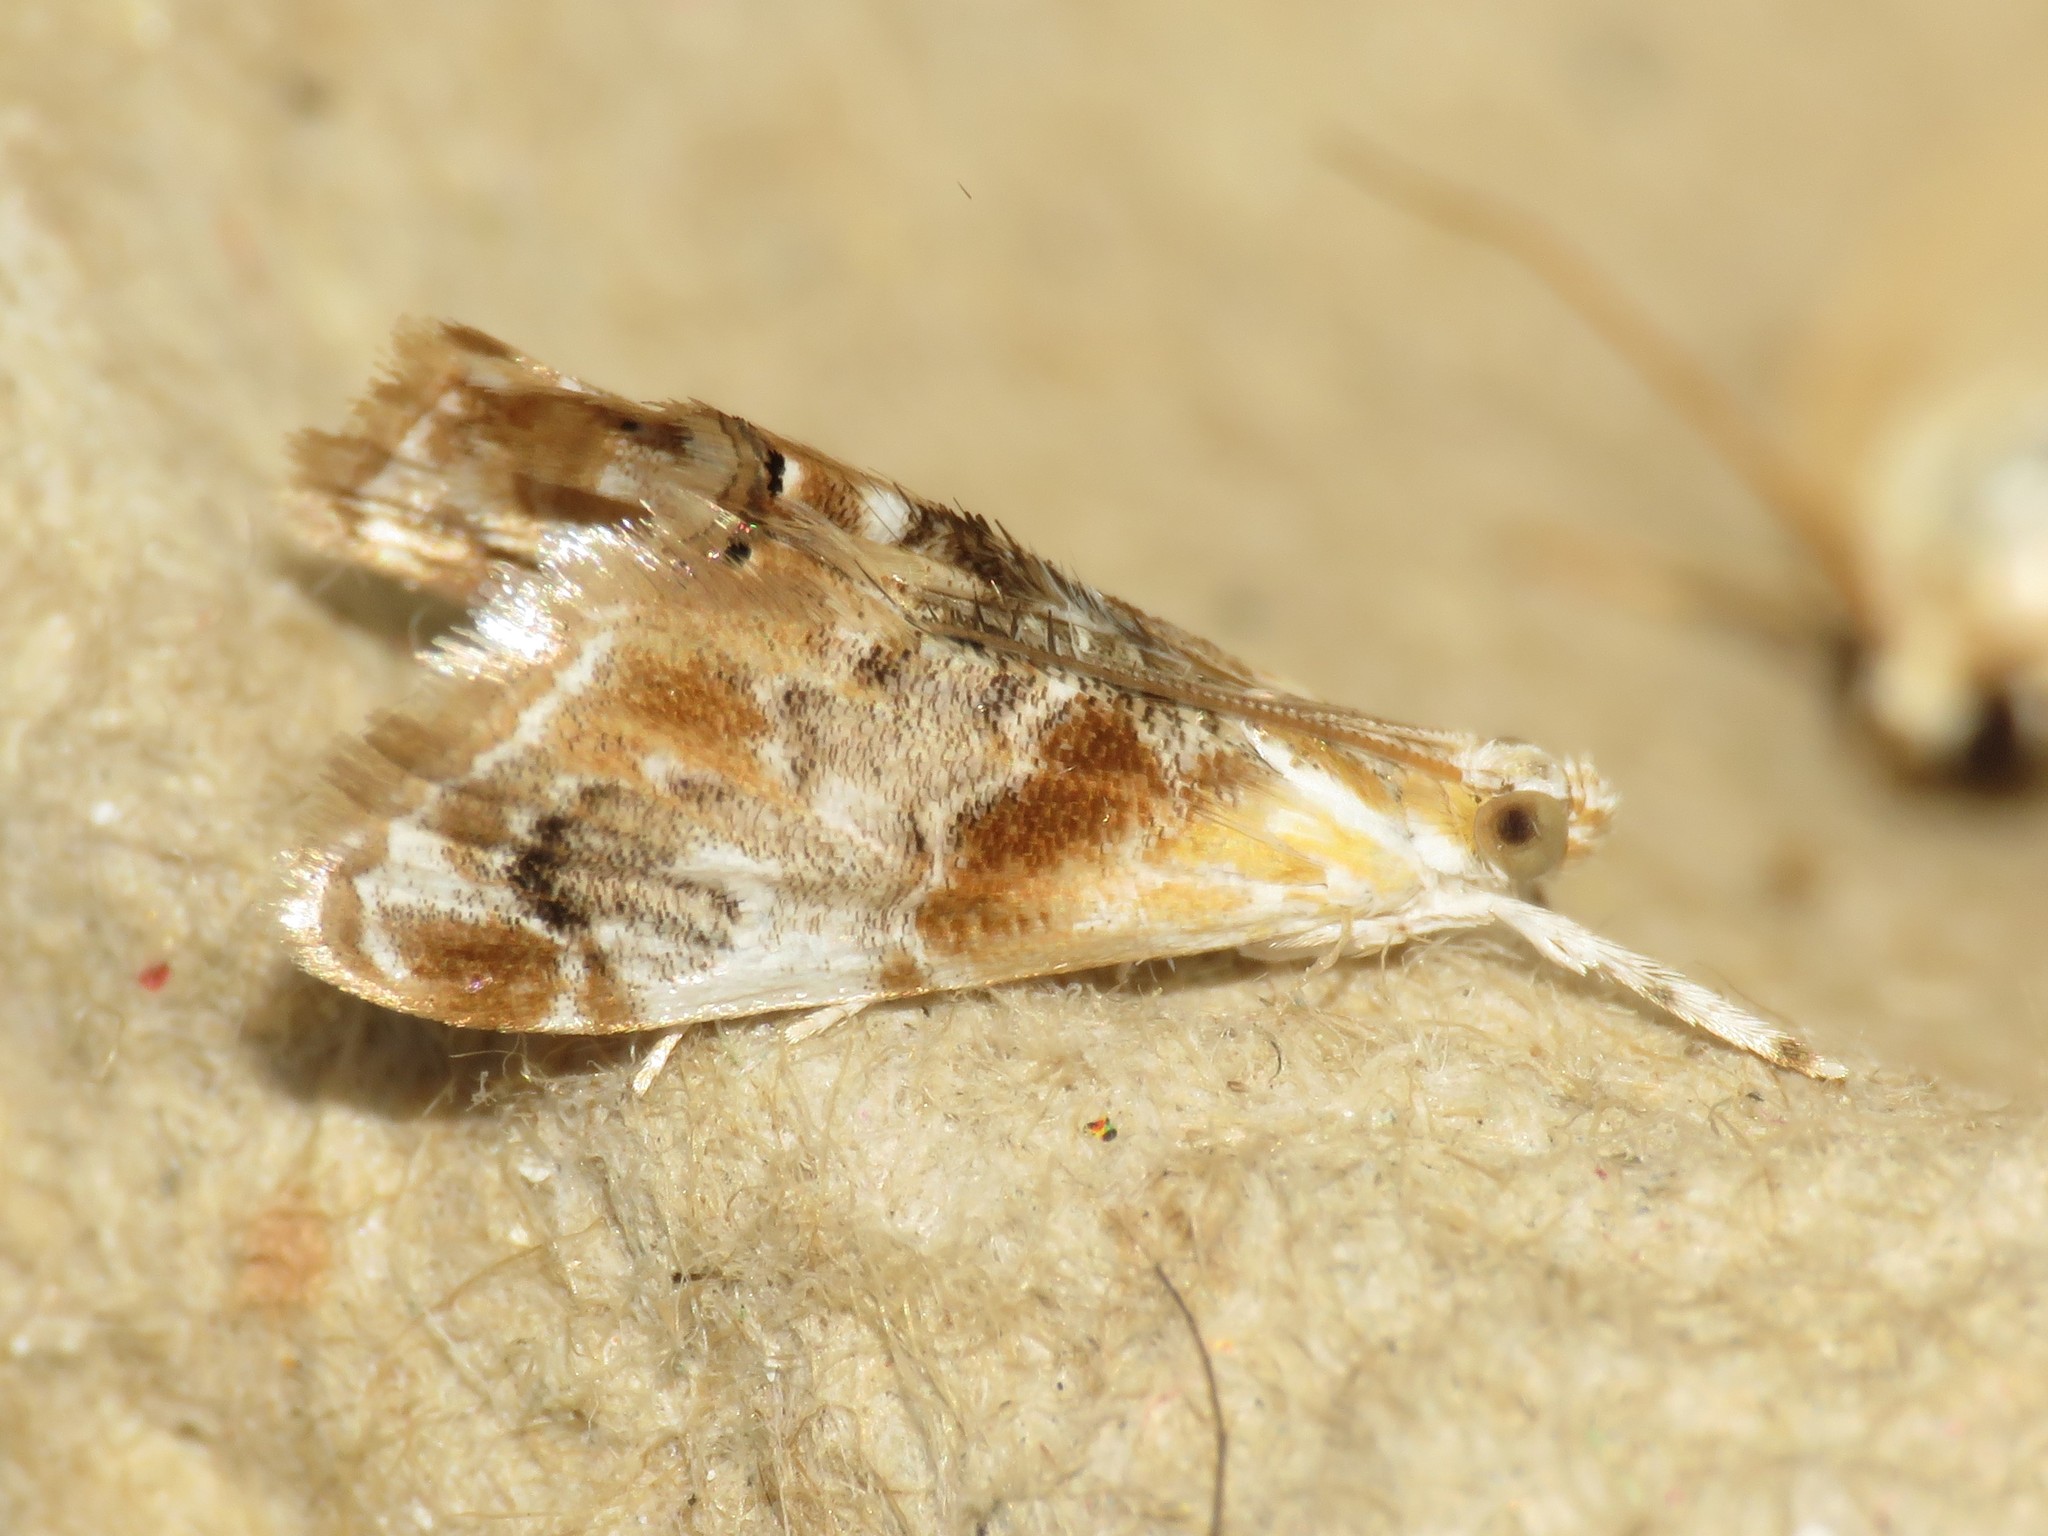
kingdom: Animalia
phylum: Arthropoda
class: Insecta
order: Lepidoptera
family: Crambidae
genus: Dicymolomia
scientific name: Dicymolomia julianalis
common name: Julia's dicymolomia moth
